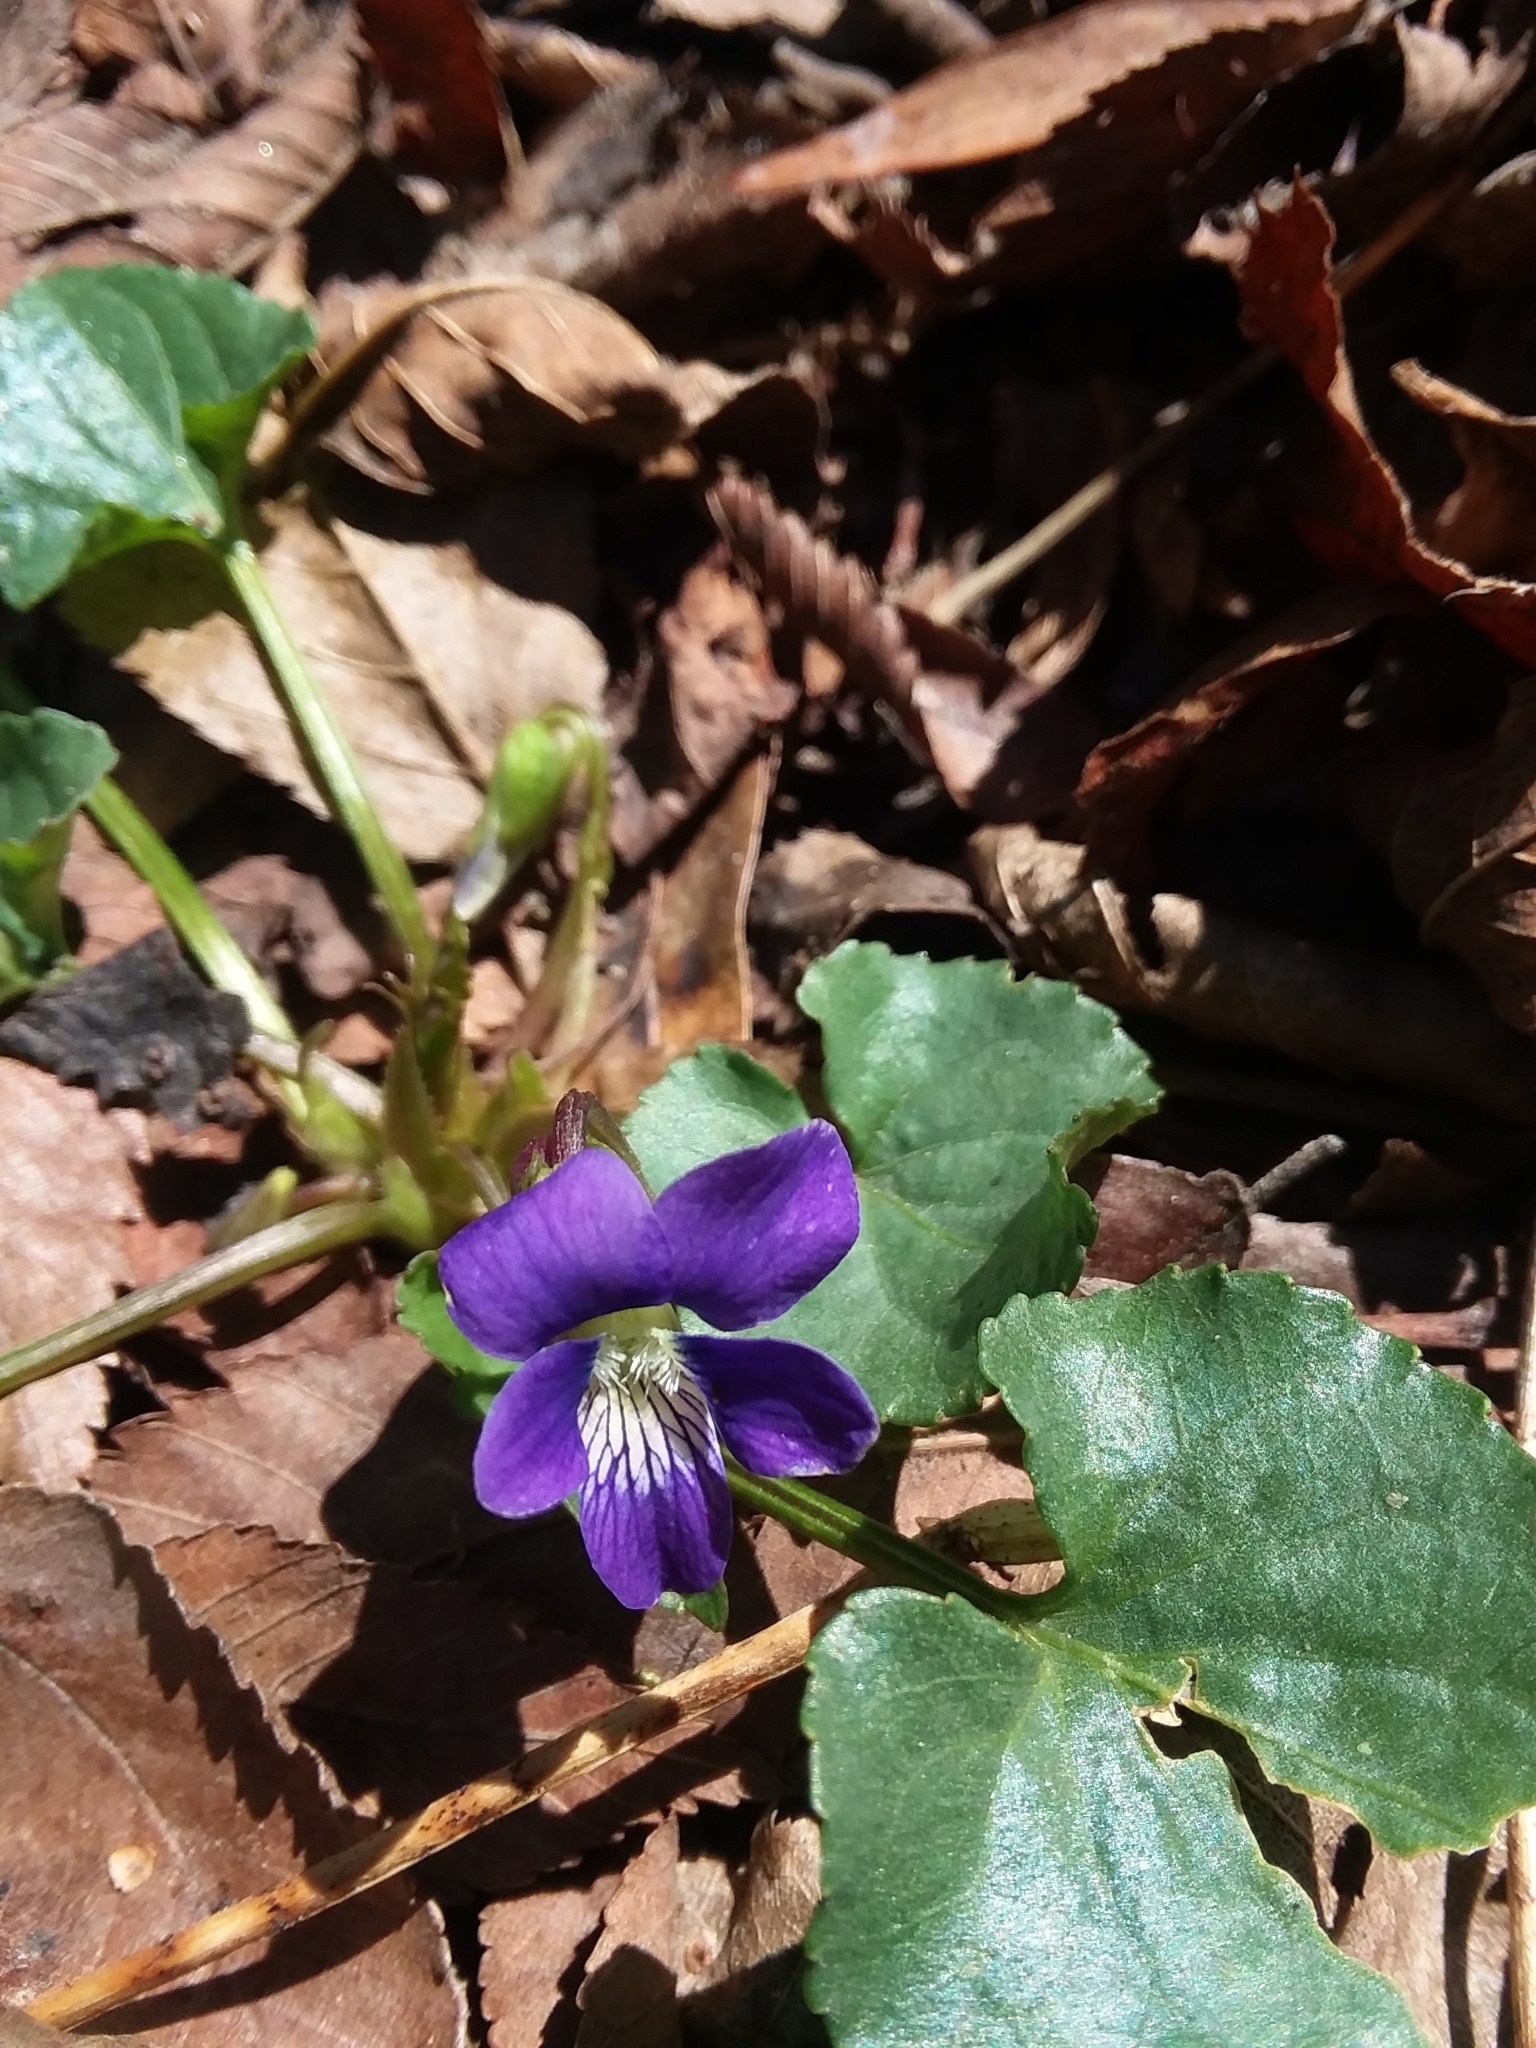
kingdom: Plantae
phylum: Tracheophyta
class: Magnoliopsida
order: Malpighiales
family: Violaceae
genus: Viola
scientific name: Viola sororia
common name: Dooryard violet
